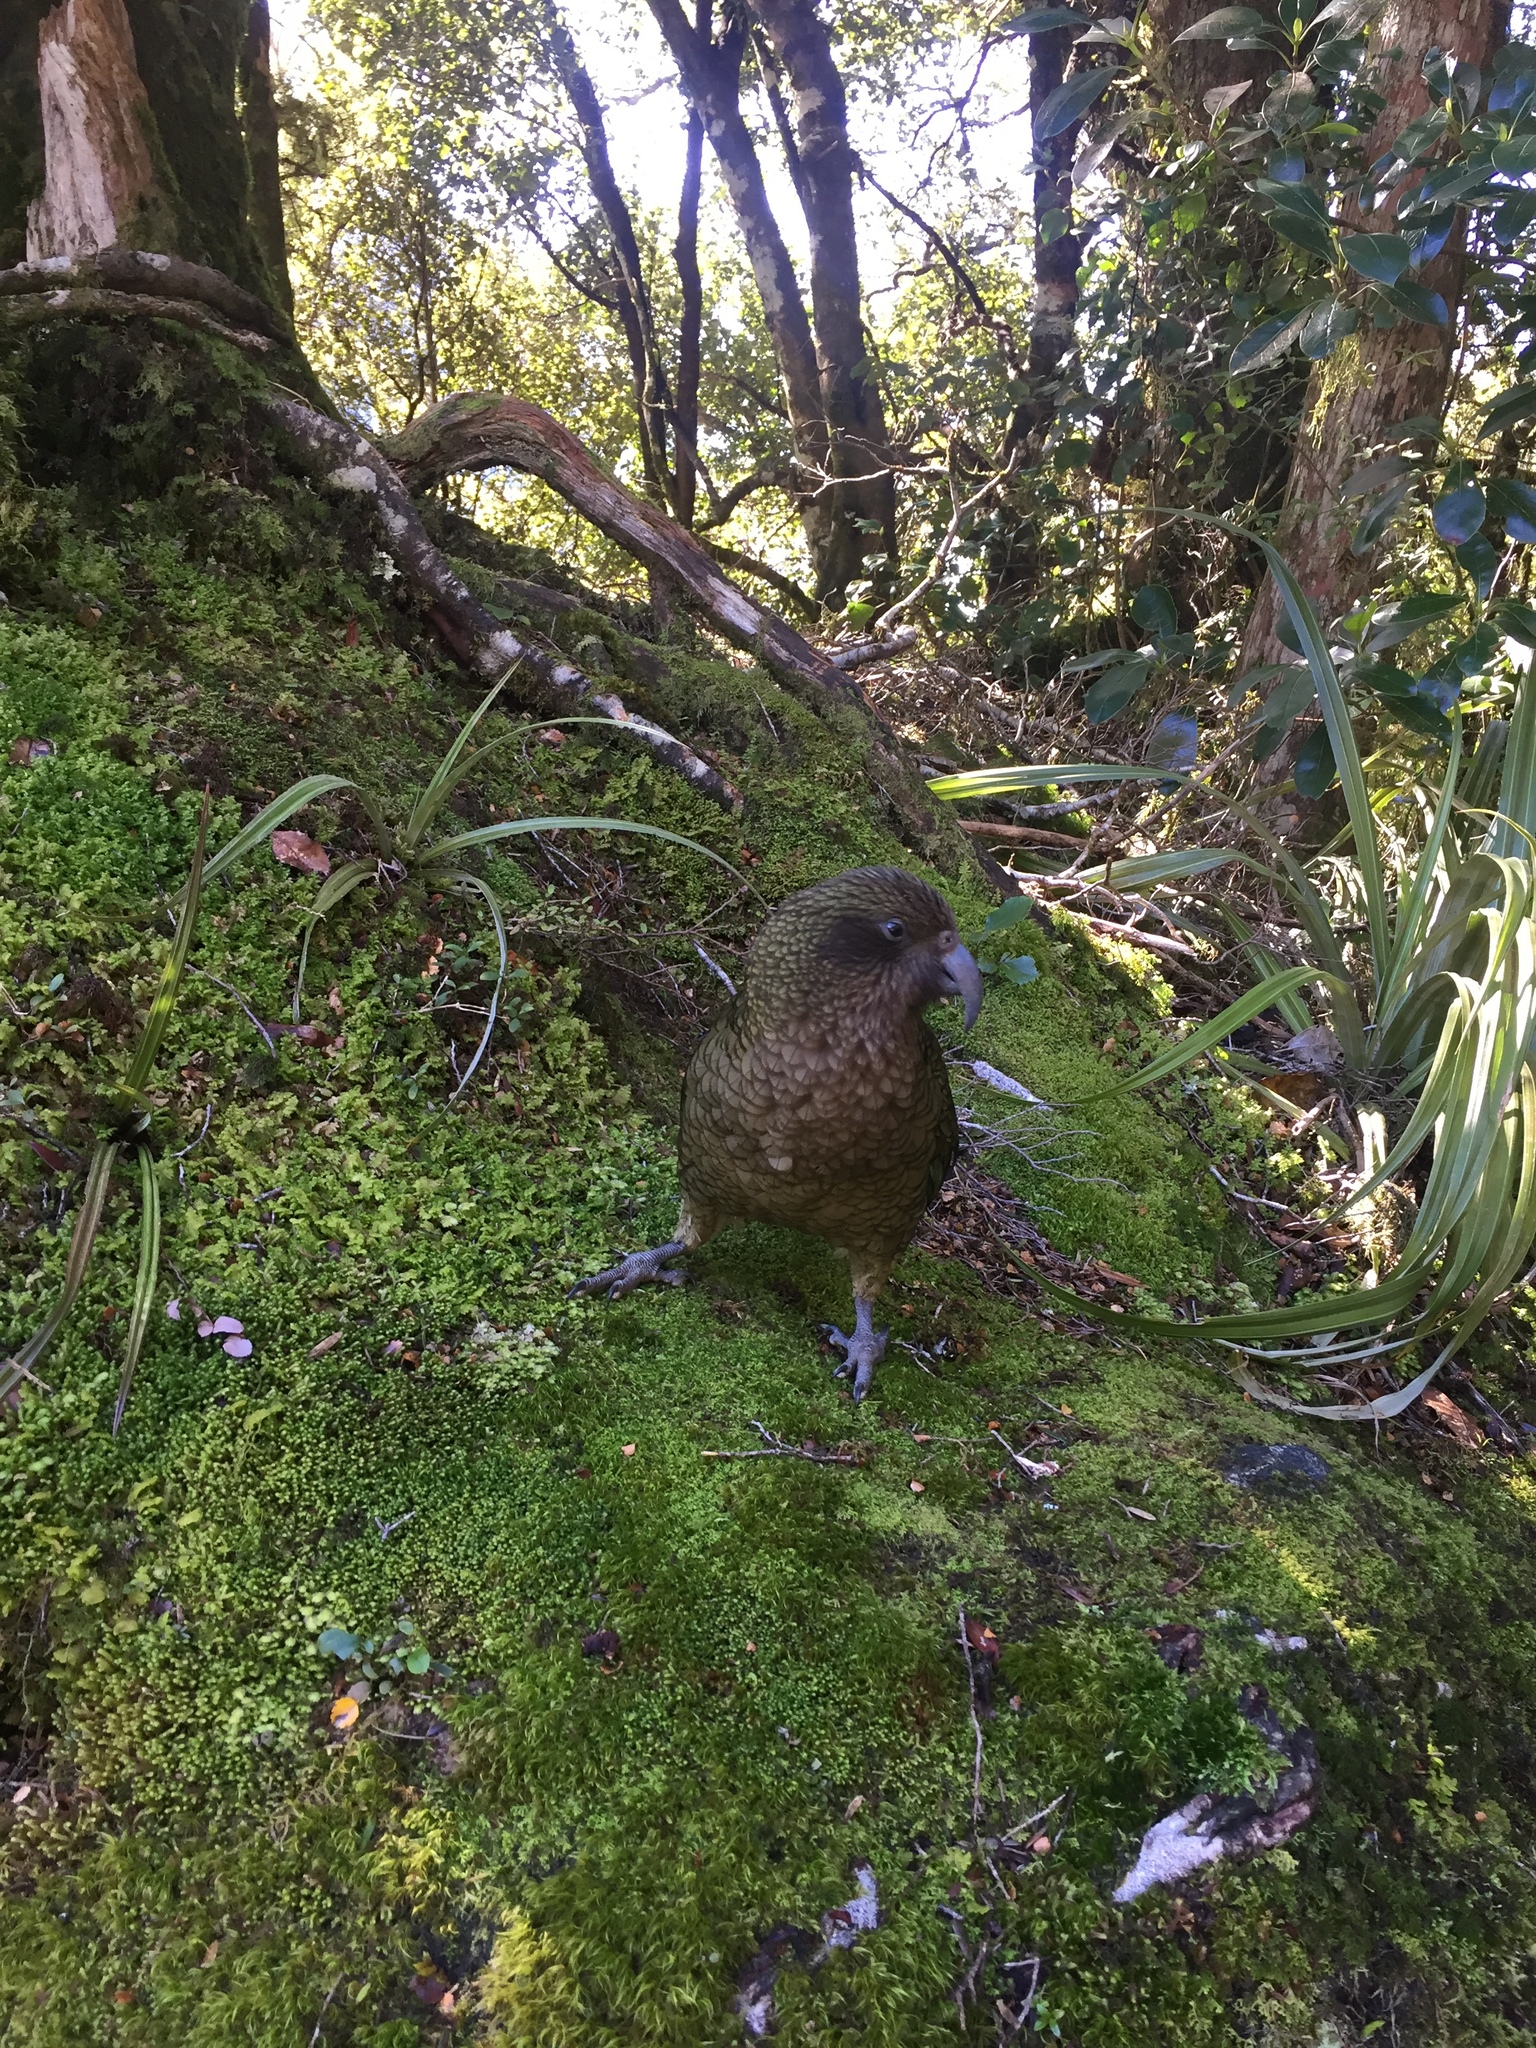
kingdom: Animalia
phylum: Chordata
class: Aves
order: Psittaciformes
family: Psittacidae
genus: Nestor
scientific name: Nestor notabilis
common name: Kea
